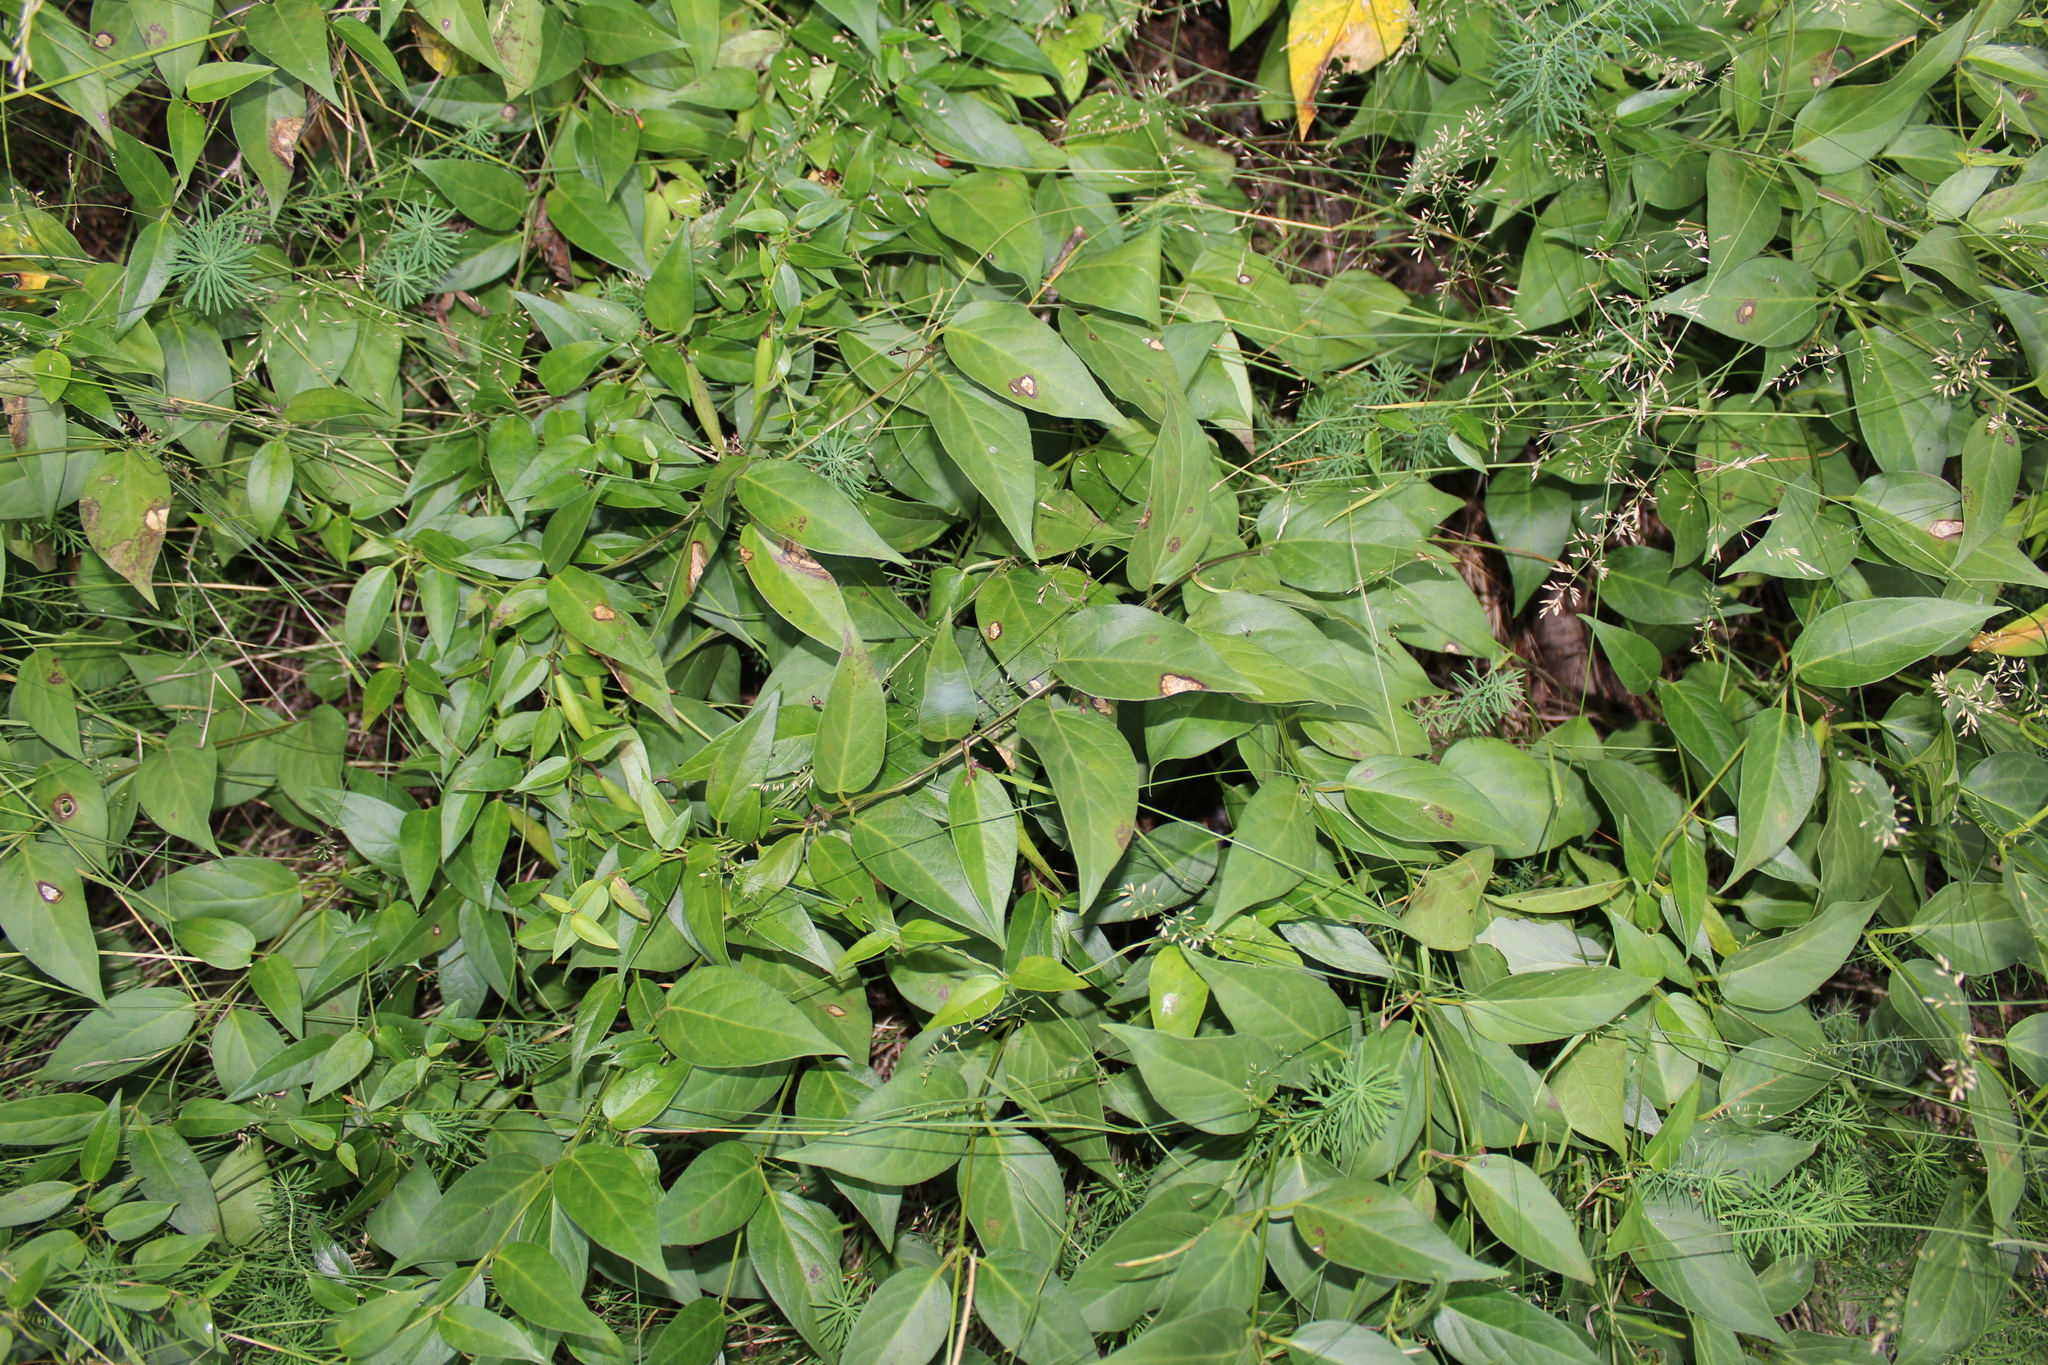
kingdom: Plantae
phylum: Tracheophyta
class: Magnoliopsida
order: Gentianales
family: Apocynaceae
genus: Vincetoxicum
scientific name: Vincetoxicum nigrum
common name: Black swallow-wort
